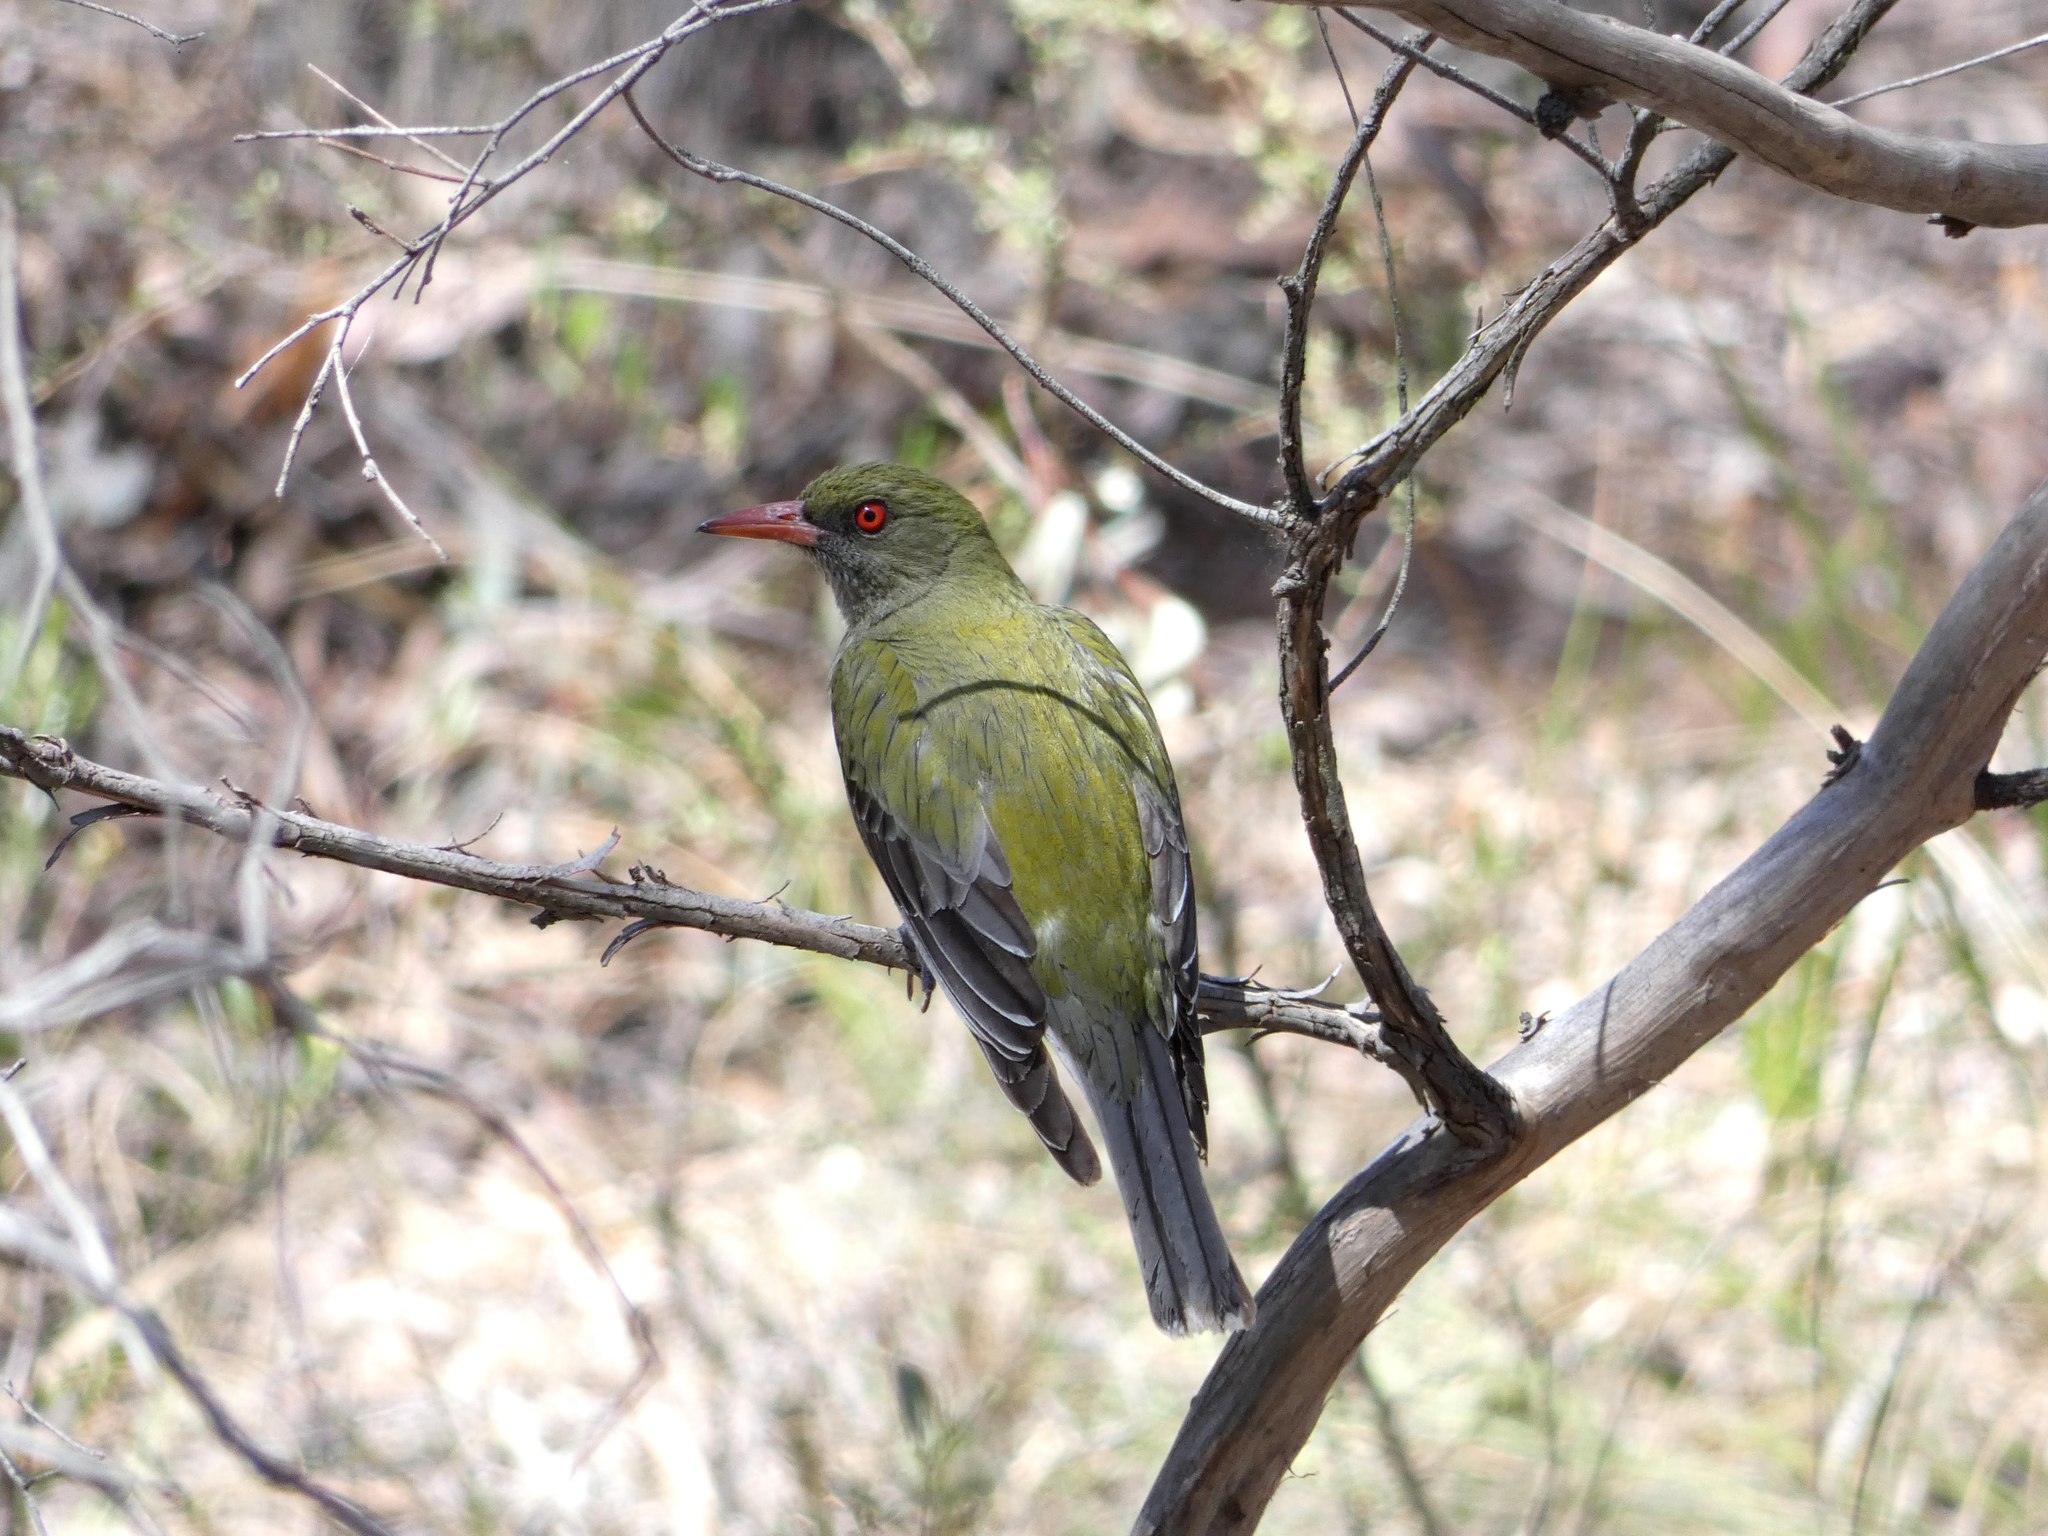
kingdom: Animalia
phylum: Chordata
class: Aves
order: Passeriformes
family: Oriolidae
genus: Oriolus
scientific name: Oriolus sagittatus
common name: Olive-backed oriole
